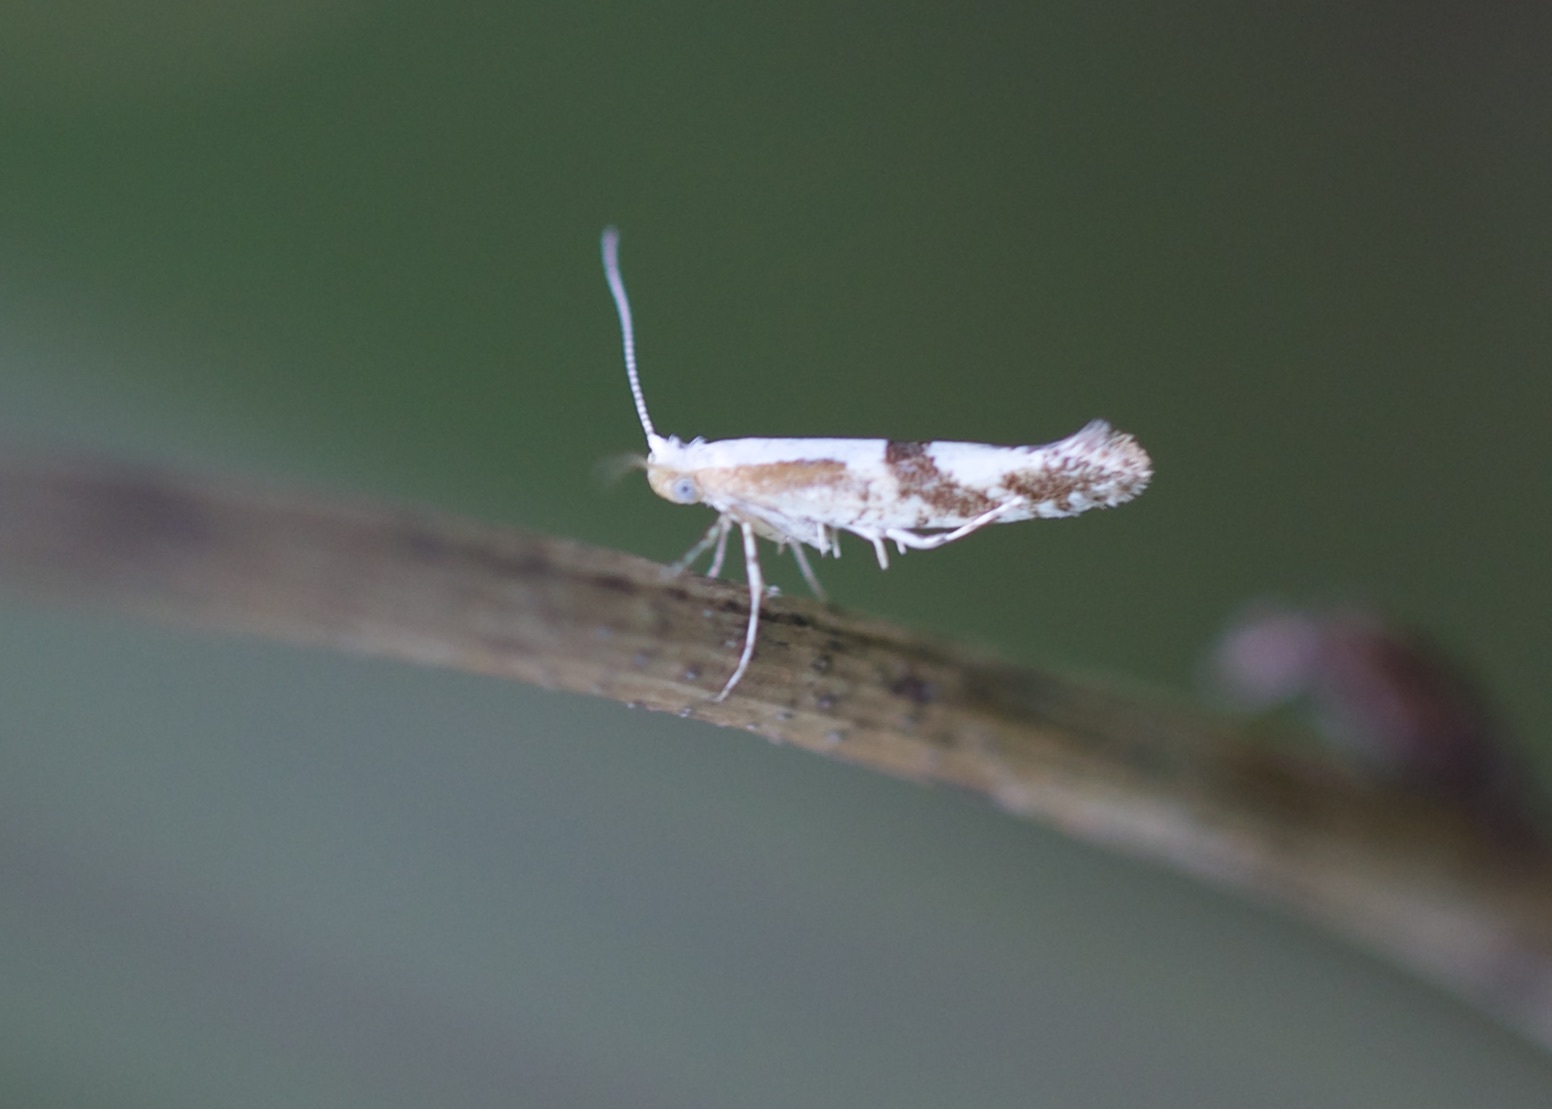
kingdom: Animalia
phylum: Arthropoda
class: Insecta
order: Lepidoptera
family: Argyresthiidae
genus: Argyresthia
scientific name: Argyresthia pruniella
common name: Cherry fruit moth
